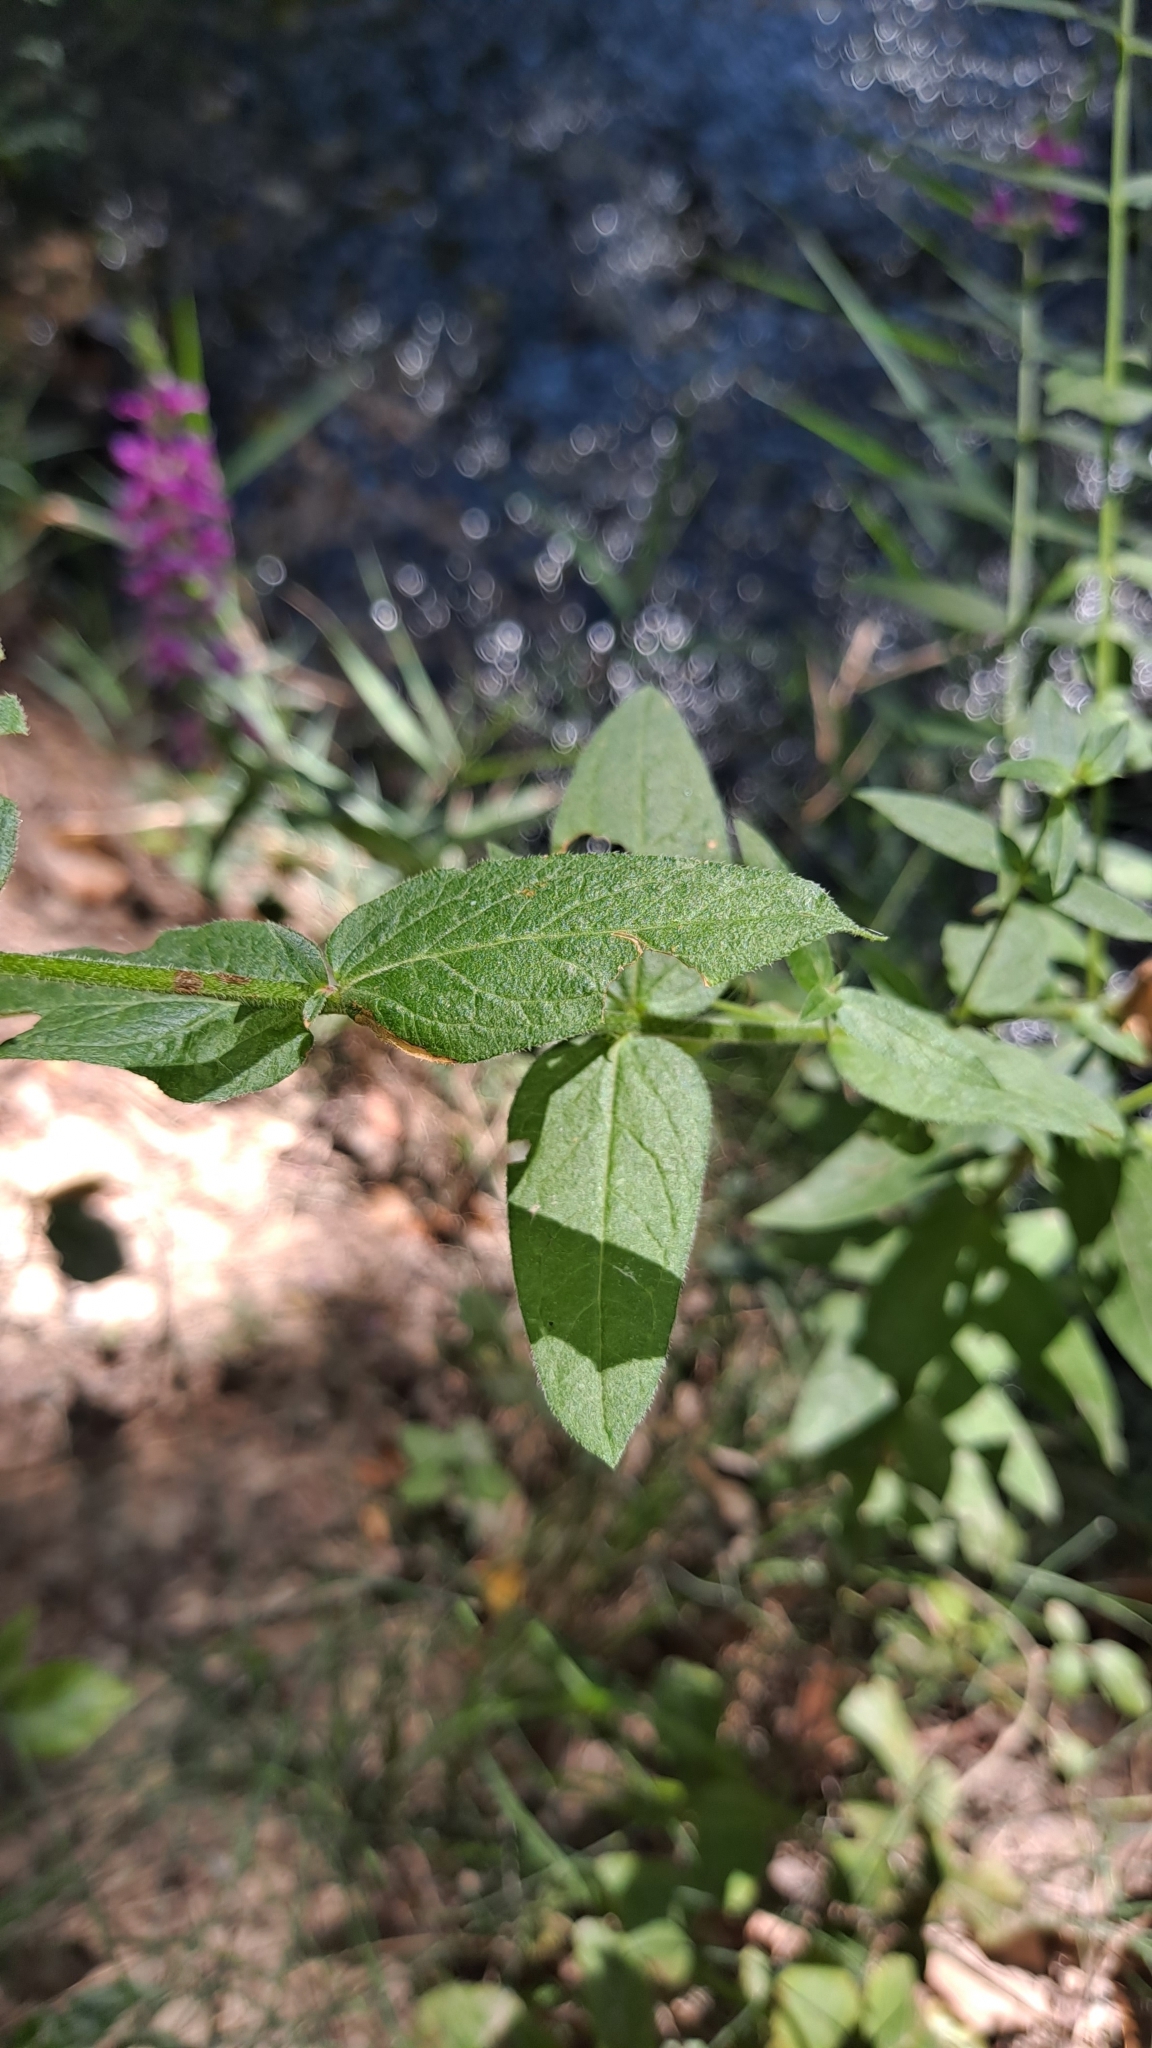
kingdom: Plantae
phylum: Tracheophyta
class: Magnoliopsida
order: Myrtales
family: Lythraceae
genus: Lythrum
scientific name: Lythrum salicaria
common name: Purple loosestrife
